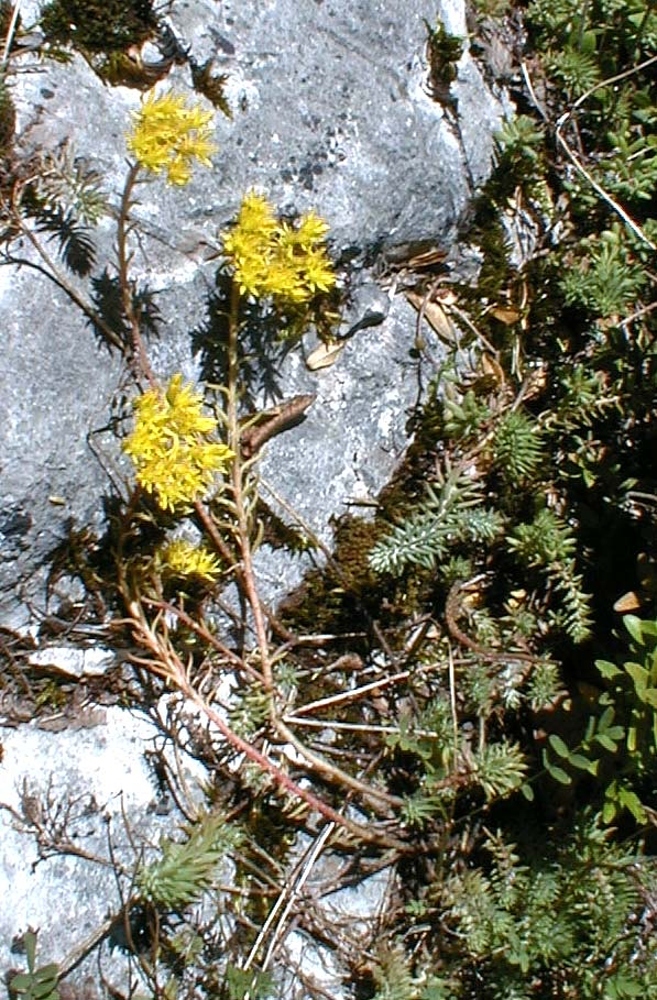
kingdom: Plantae
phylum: Tracheophyta
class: Magnoliopsida
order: Saxifragales
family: Crassulaceae
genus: Petrosedum
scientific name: Petrosedum rupestre
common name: Jenny's stonecrop
